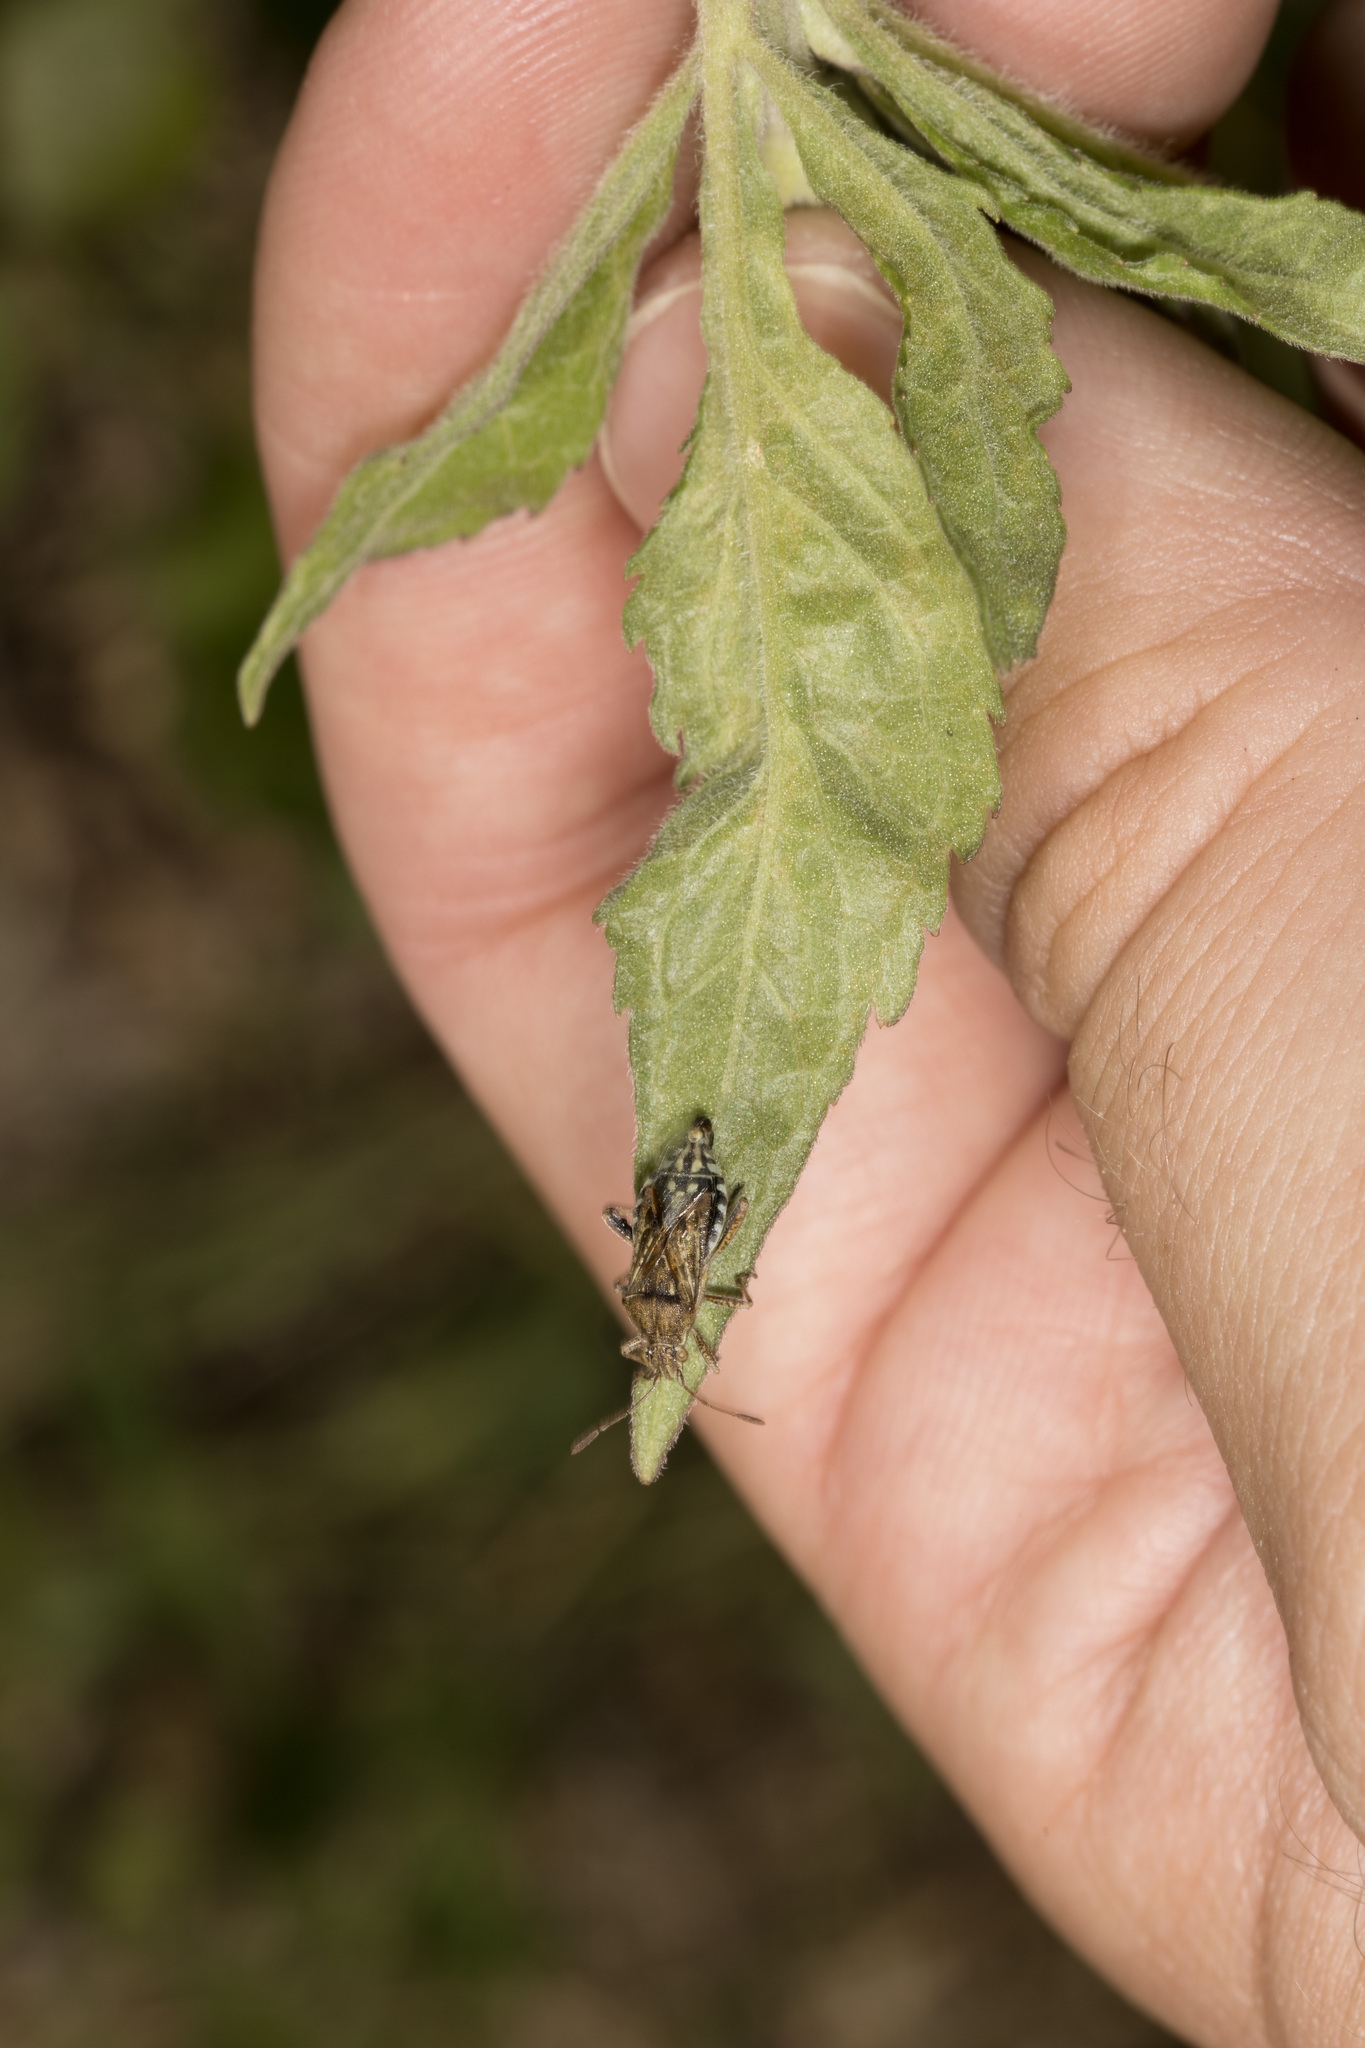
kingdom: Animalia
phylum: Arthropoda
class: Insecta
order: Hemiptera
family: Rhopalidae
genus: Stictopleurus
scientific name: Stictopleurus punctatonervosus
